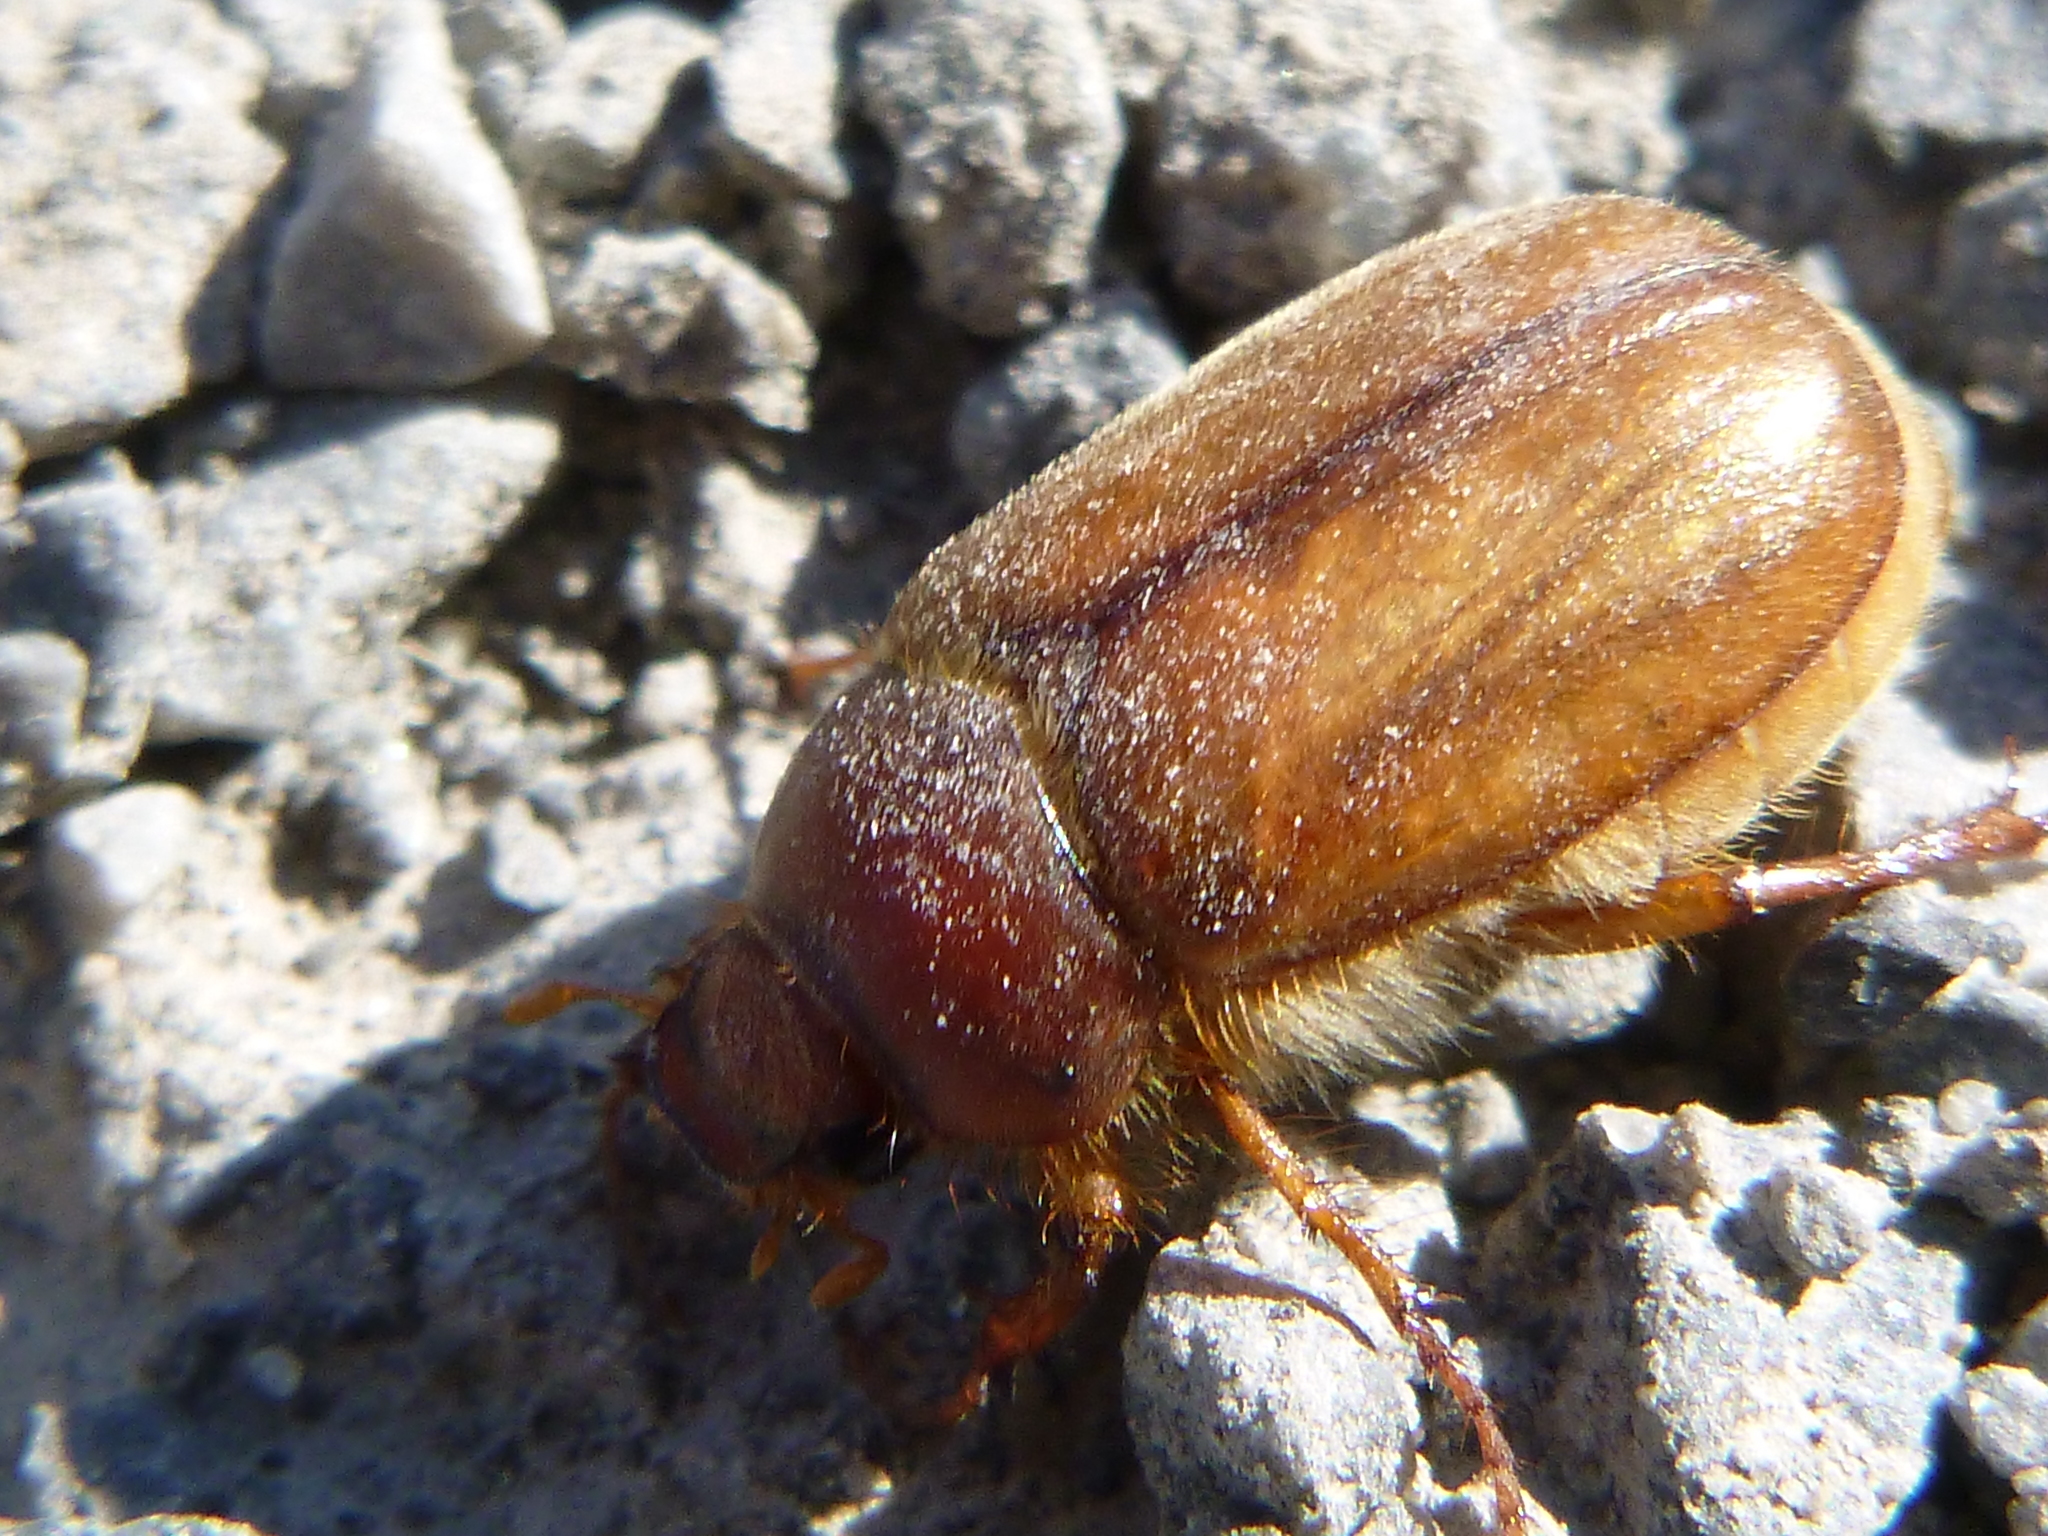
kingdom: Animalia
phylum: Arthropoda
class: Insecta
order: Coleoptera
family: Scarabaeidae
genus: Amphimallon
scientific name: Amphimallon majale
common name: European chafer
